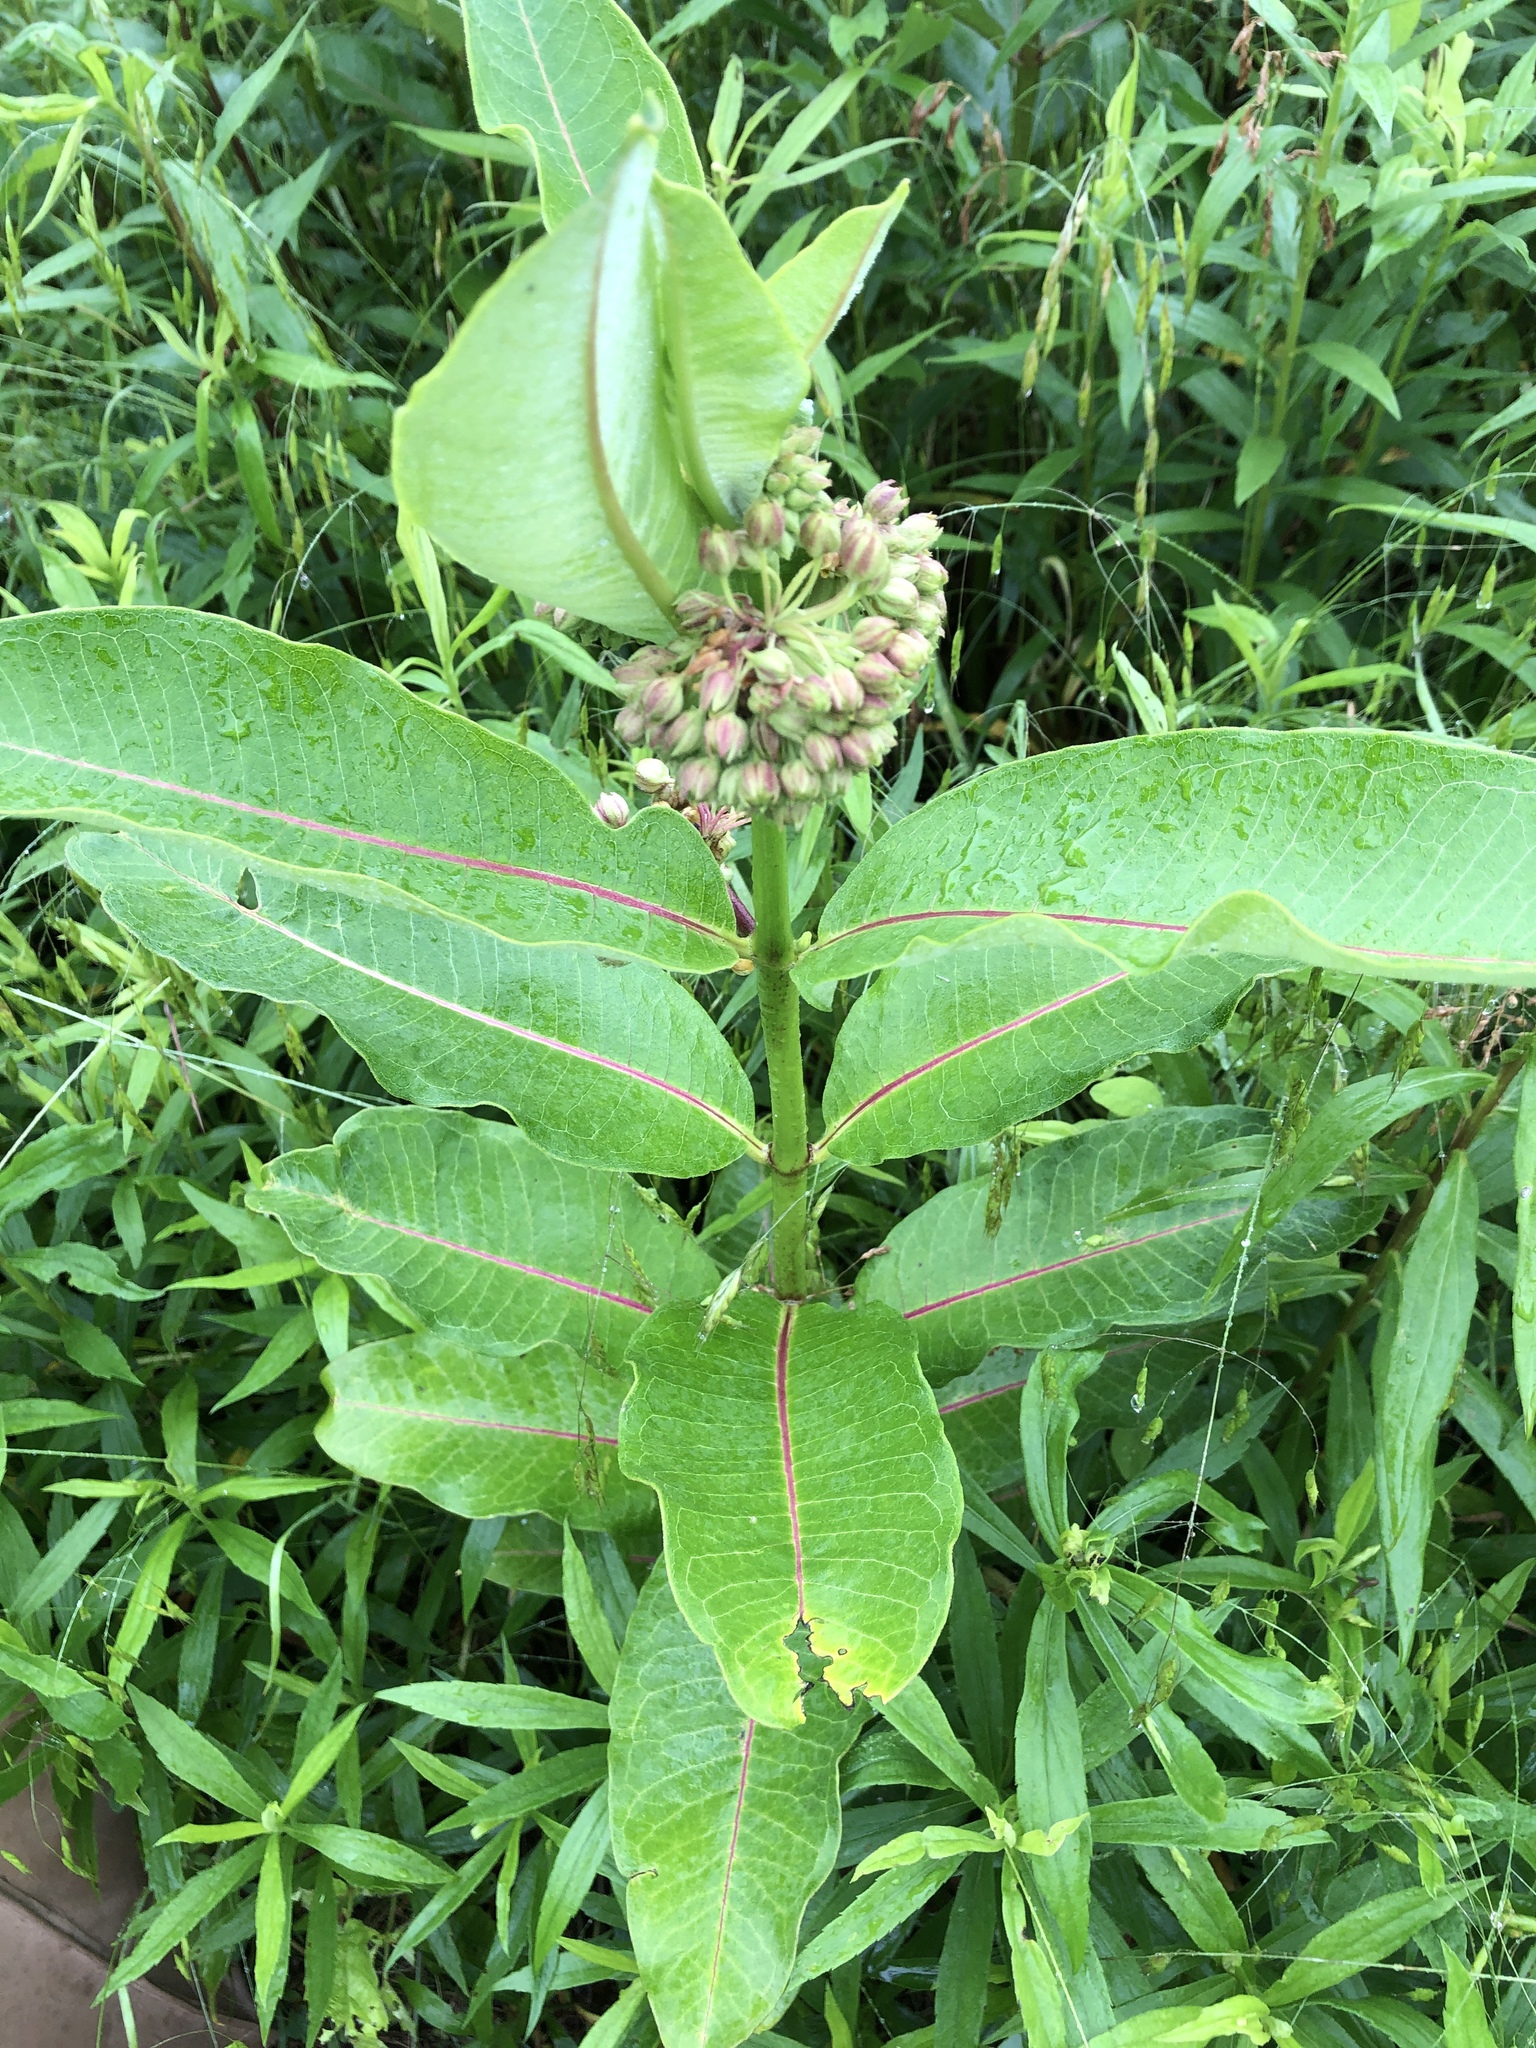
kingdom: Plantae
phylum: Tracheophyta
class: Magnoliopsida
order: Gentianales
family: Apocynaceae
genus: Asclepias
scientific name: Asclepias syriaca
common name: Common milkweed
